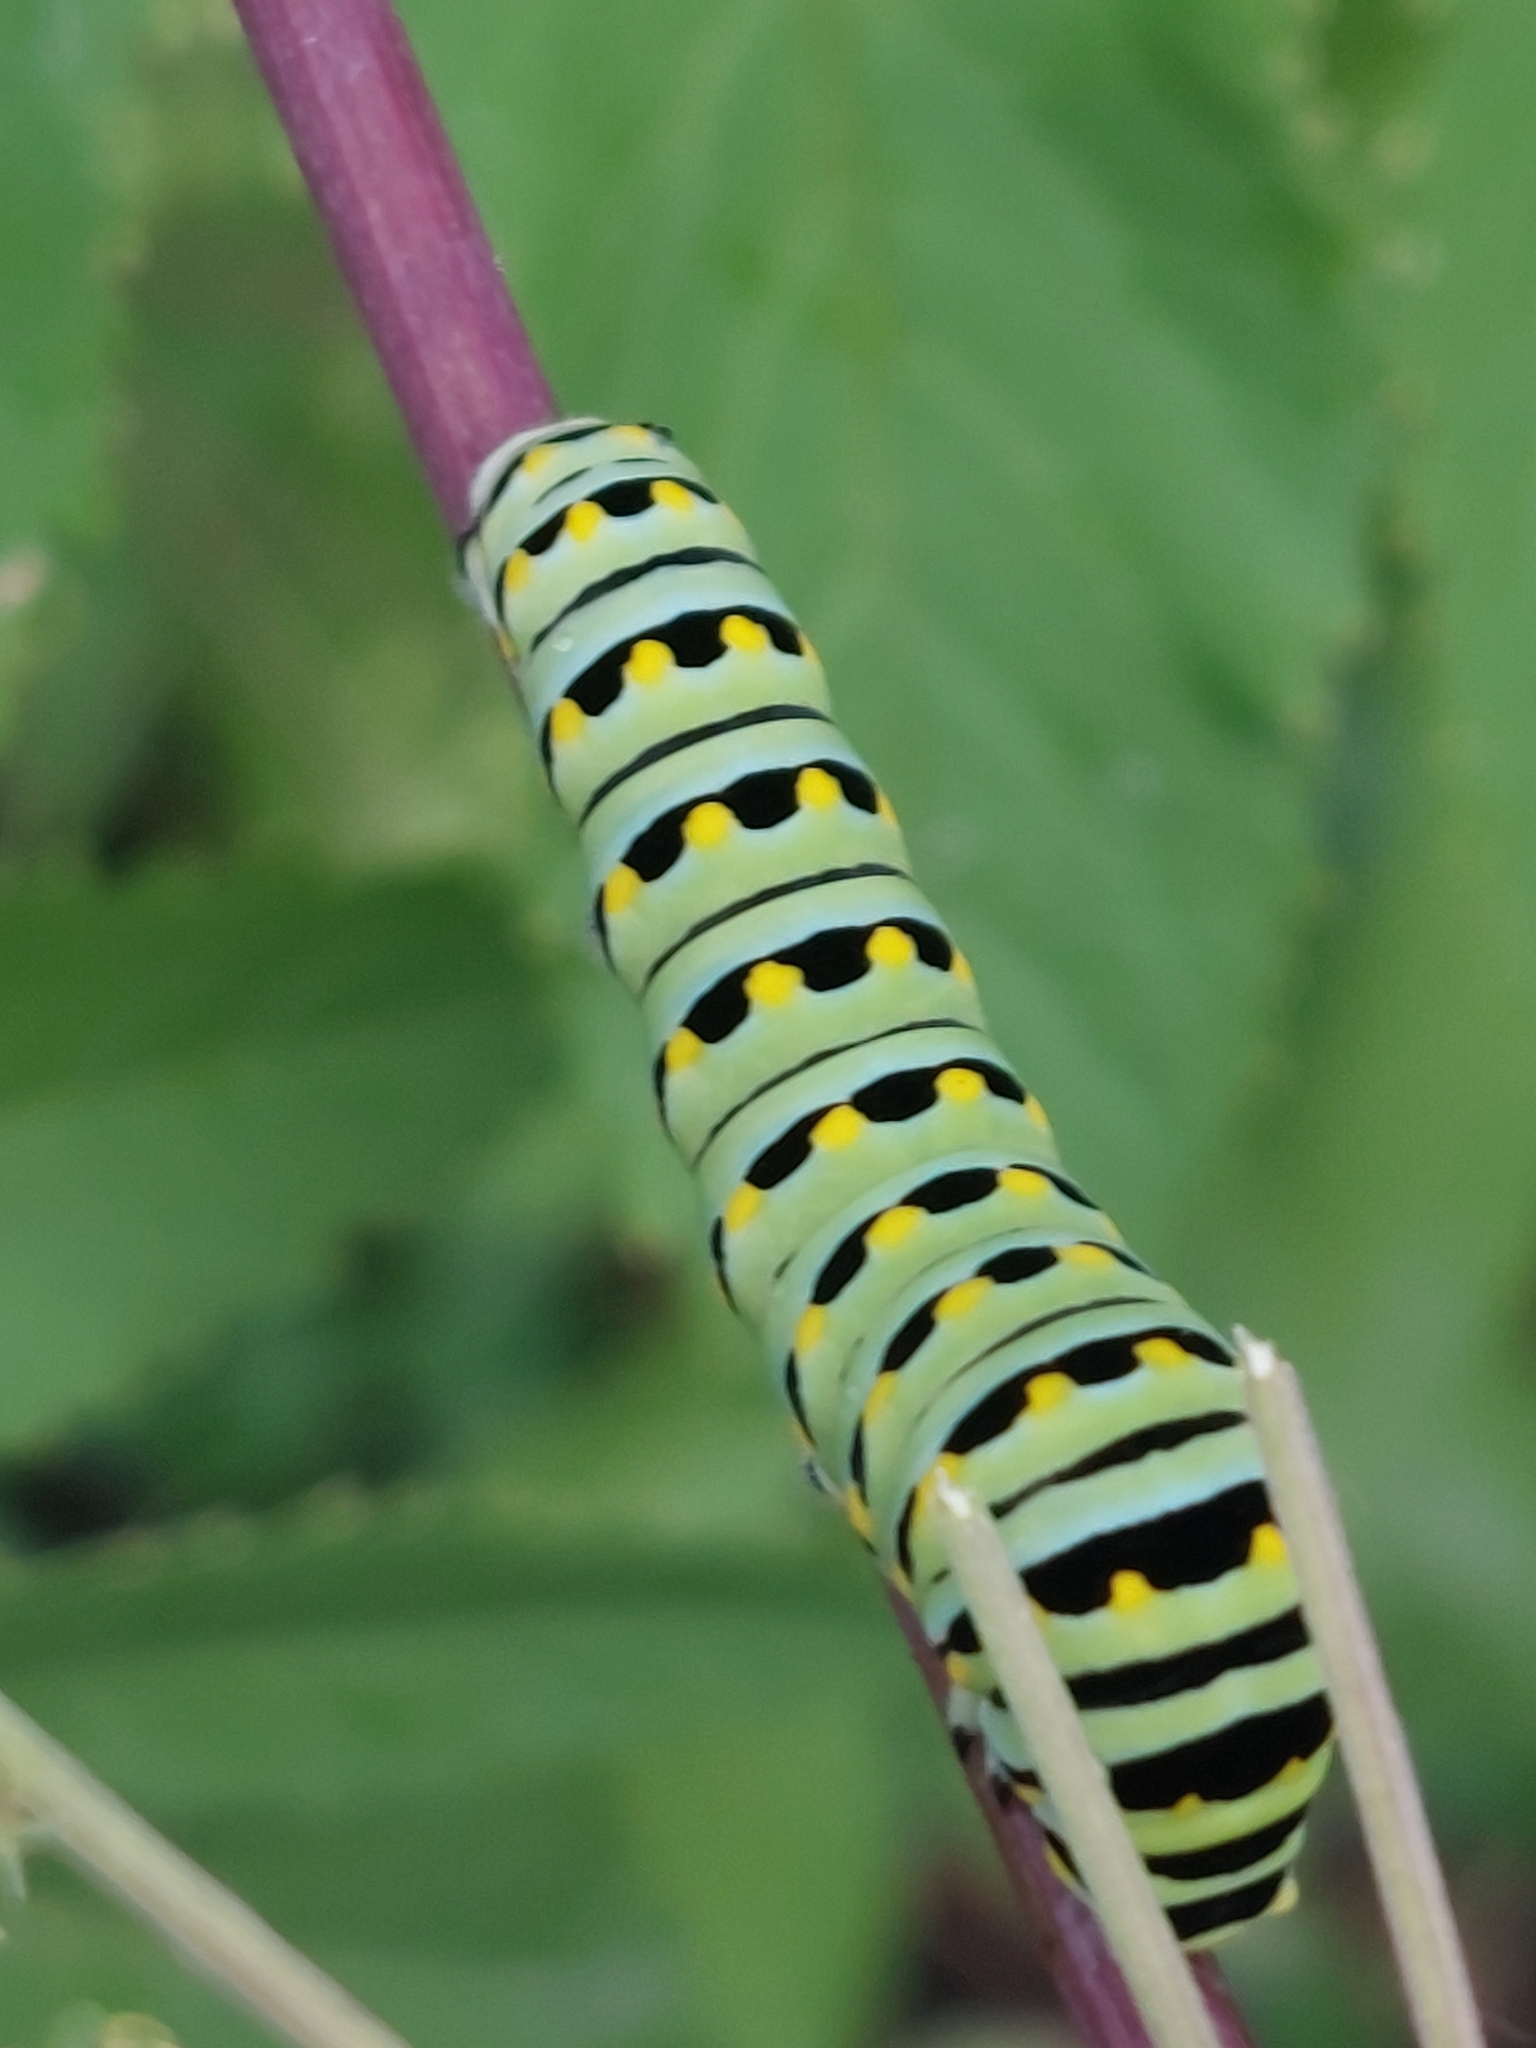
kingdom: Animalia
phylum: Arthropoda
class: Insecta
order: Lepidoptera
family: Papilionidae
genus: Papilio
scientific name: Papilio polyxenes
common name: Black swallowtail
